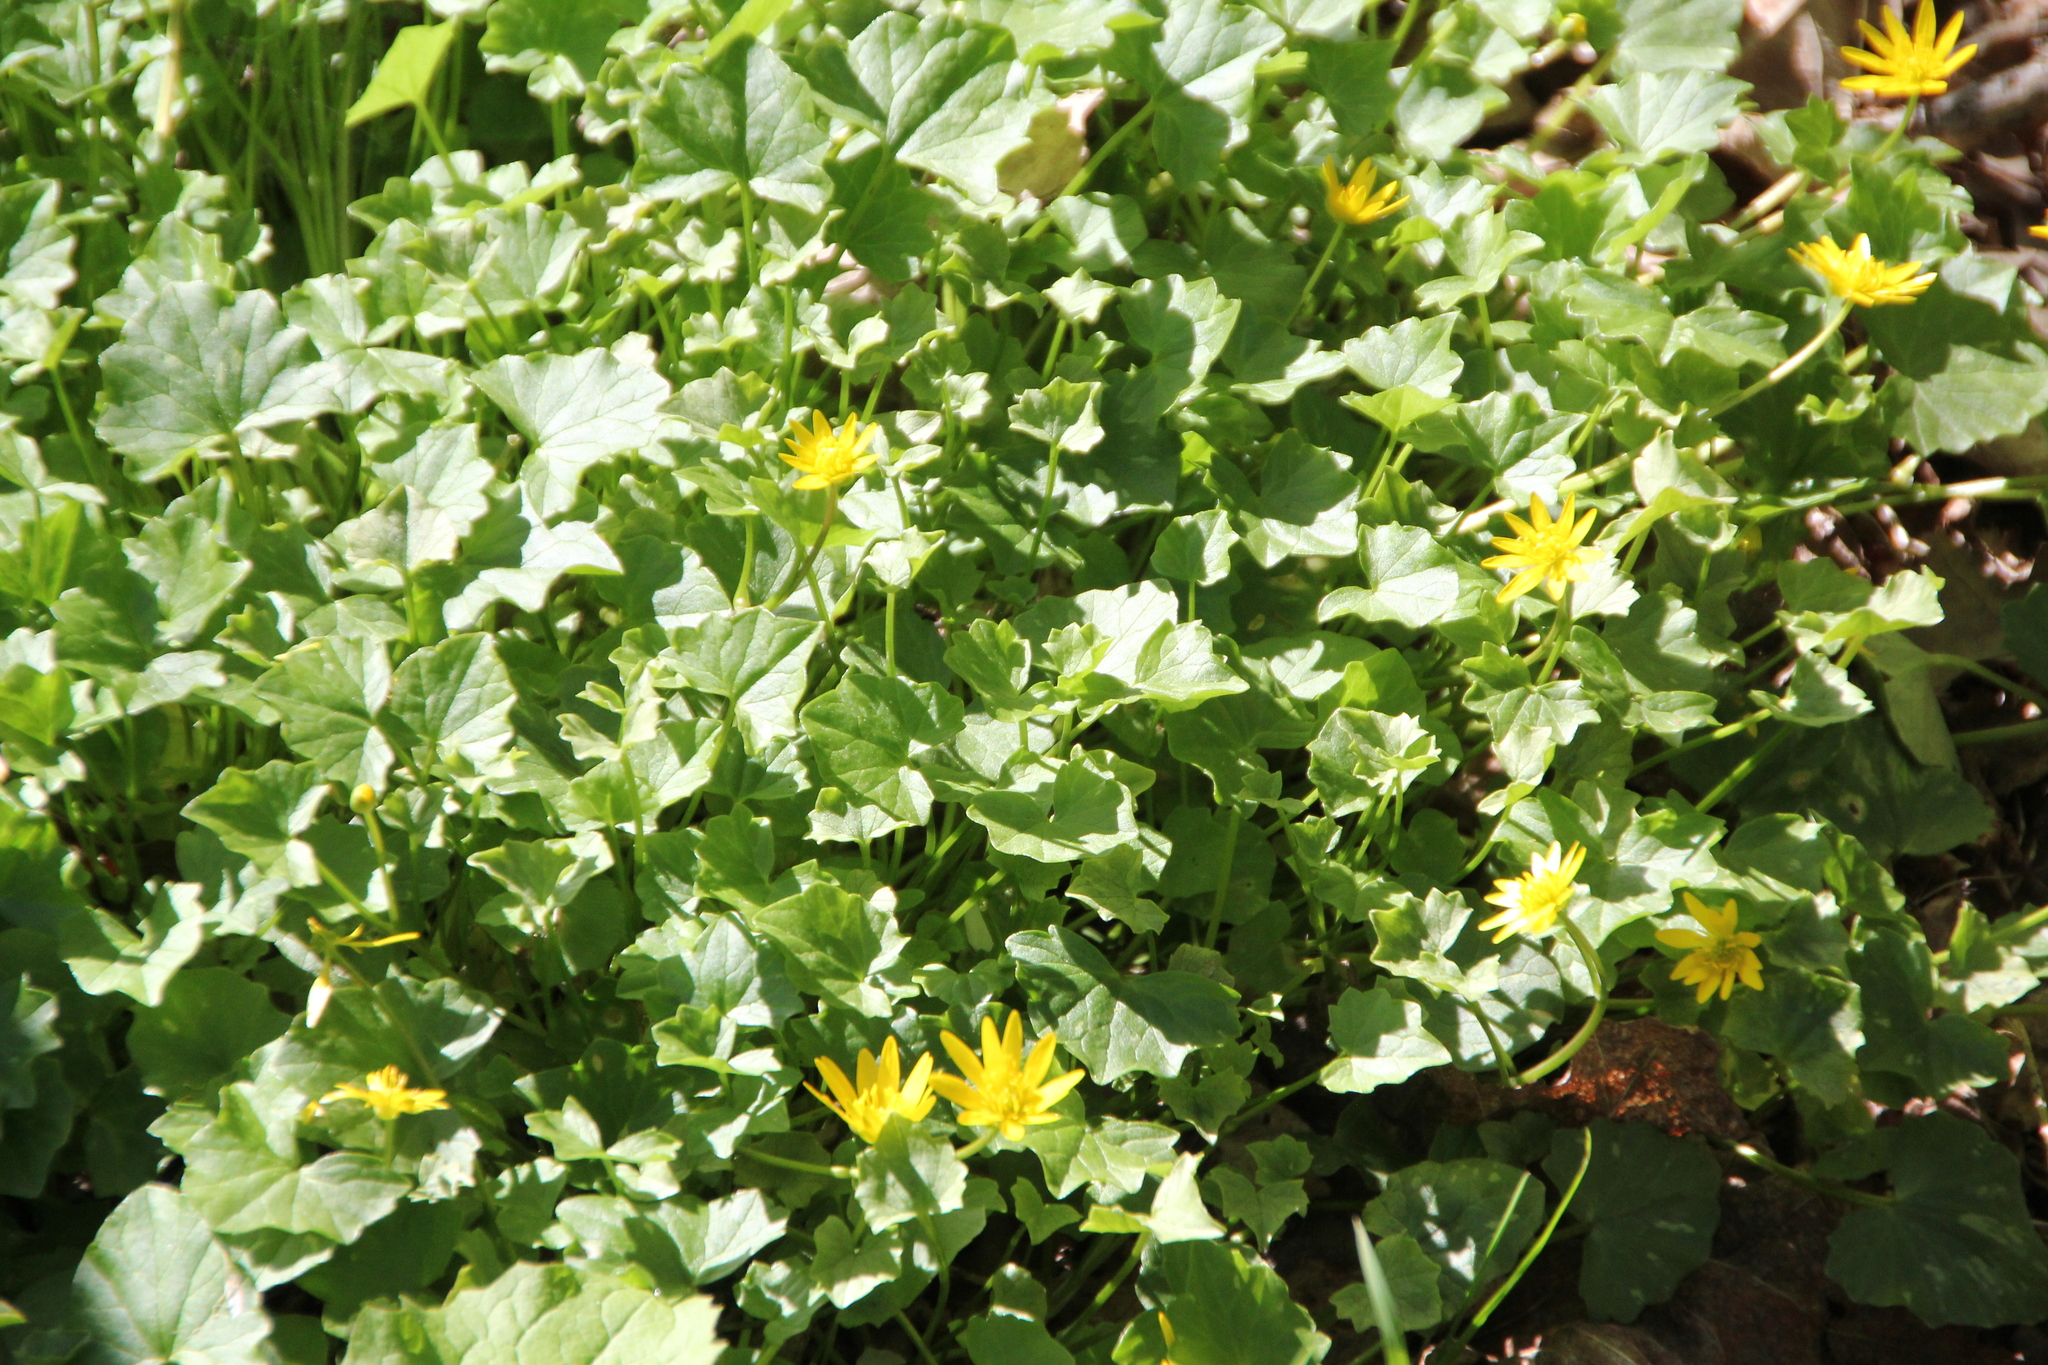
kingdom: Plantae
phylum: Tracheophyta
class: Magnoliopsida
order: Ranunculales
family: Ranunculaceae
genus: Ficaria
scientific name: Ficaria verna
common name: Lesser celandine
